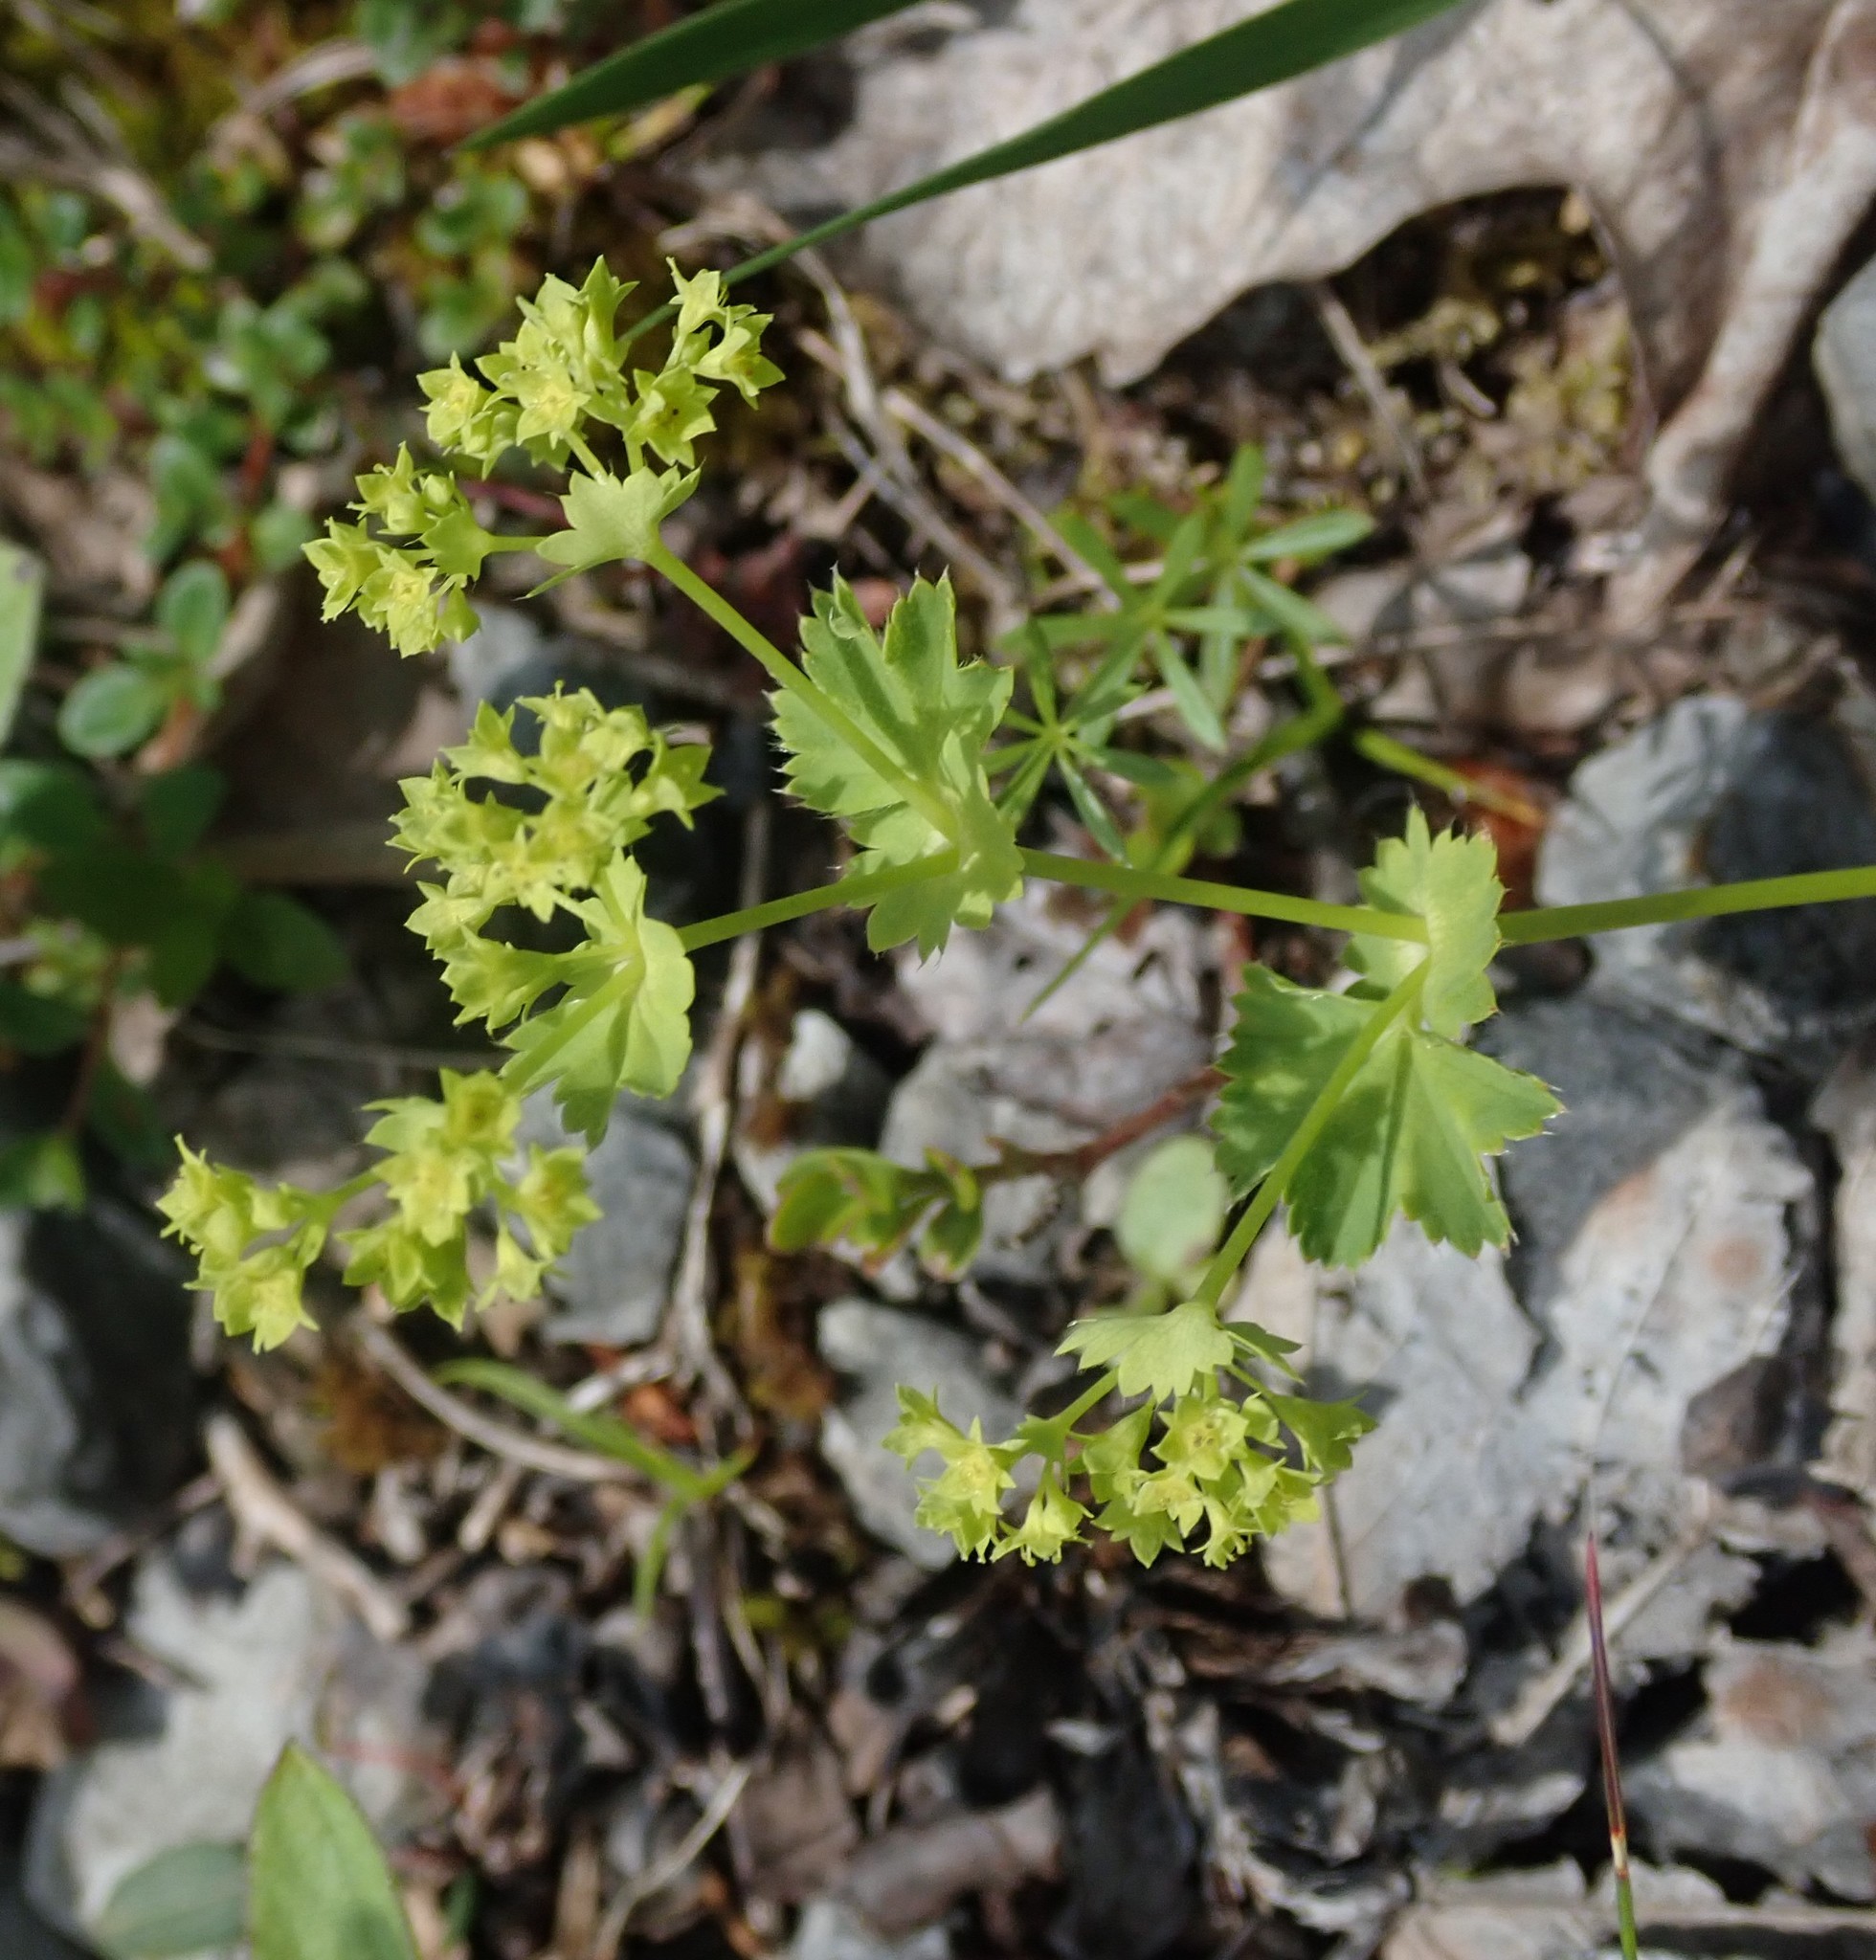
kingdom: Plantae
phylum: Tracheophyta
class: Magnoliopsida
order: Rosales
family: Rosaceae
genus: Alchemilla
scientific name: Alchemilla vulgaris
